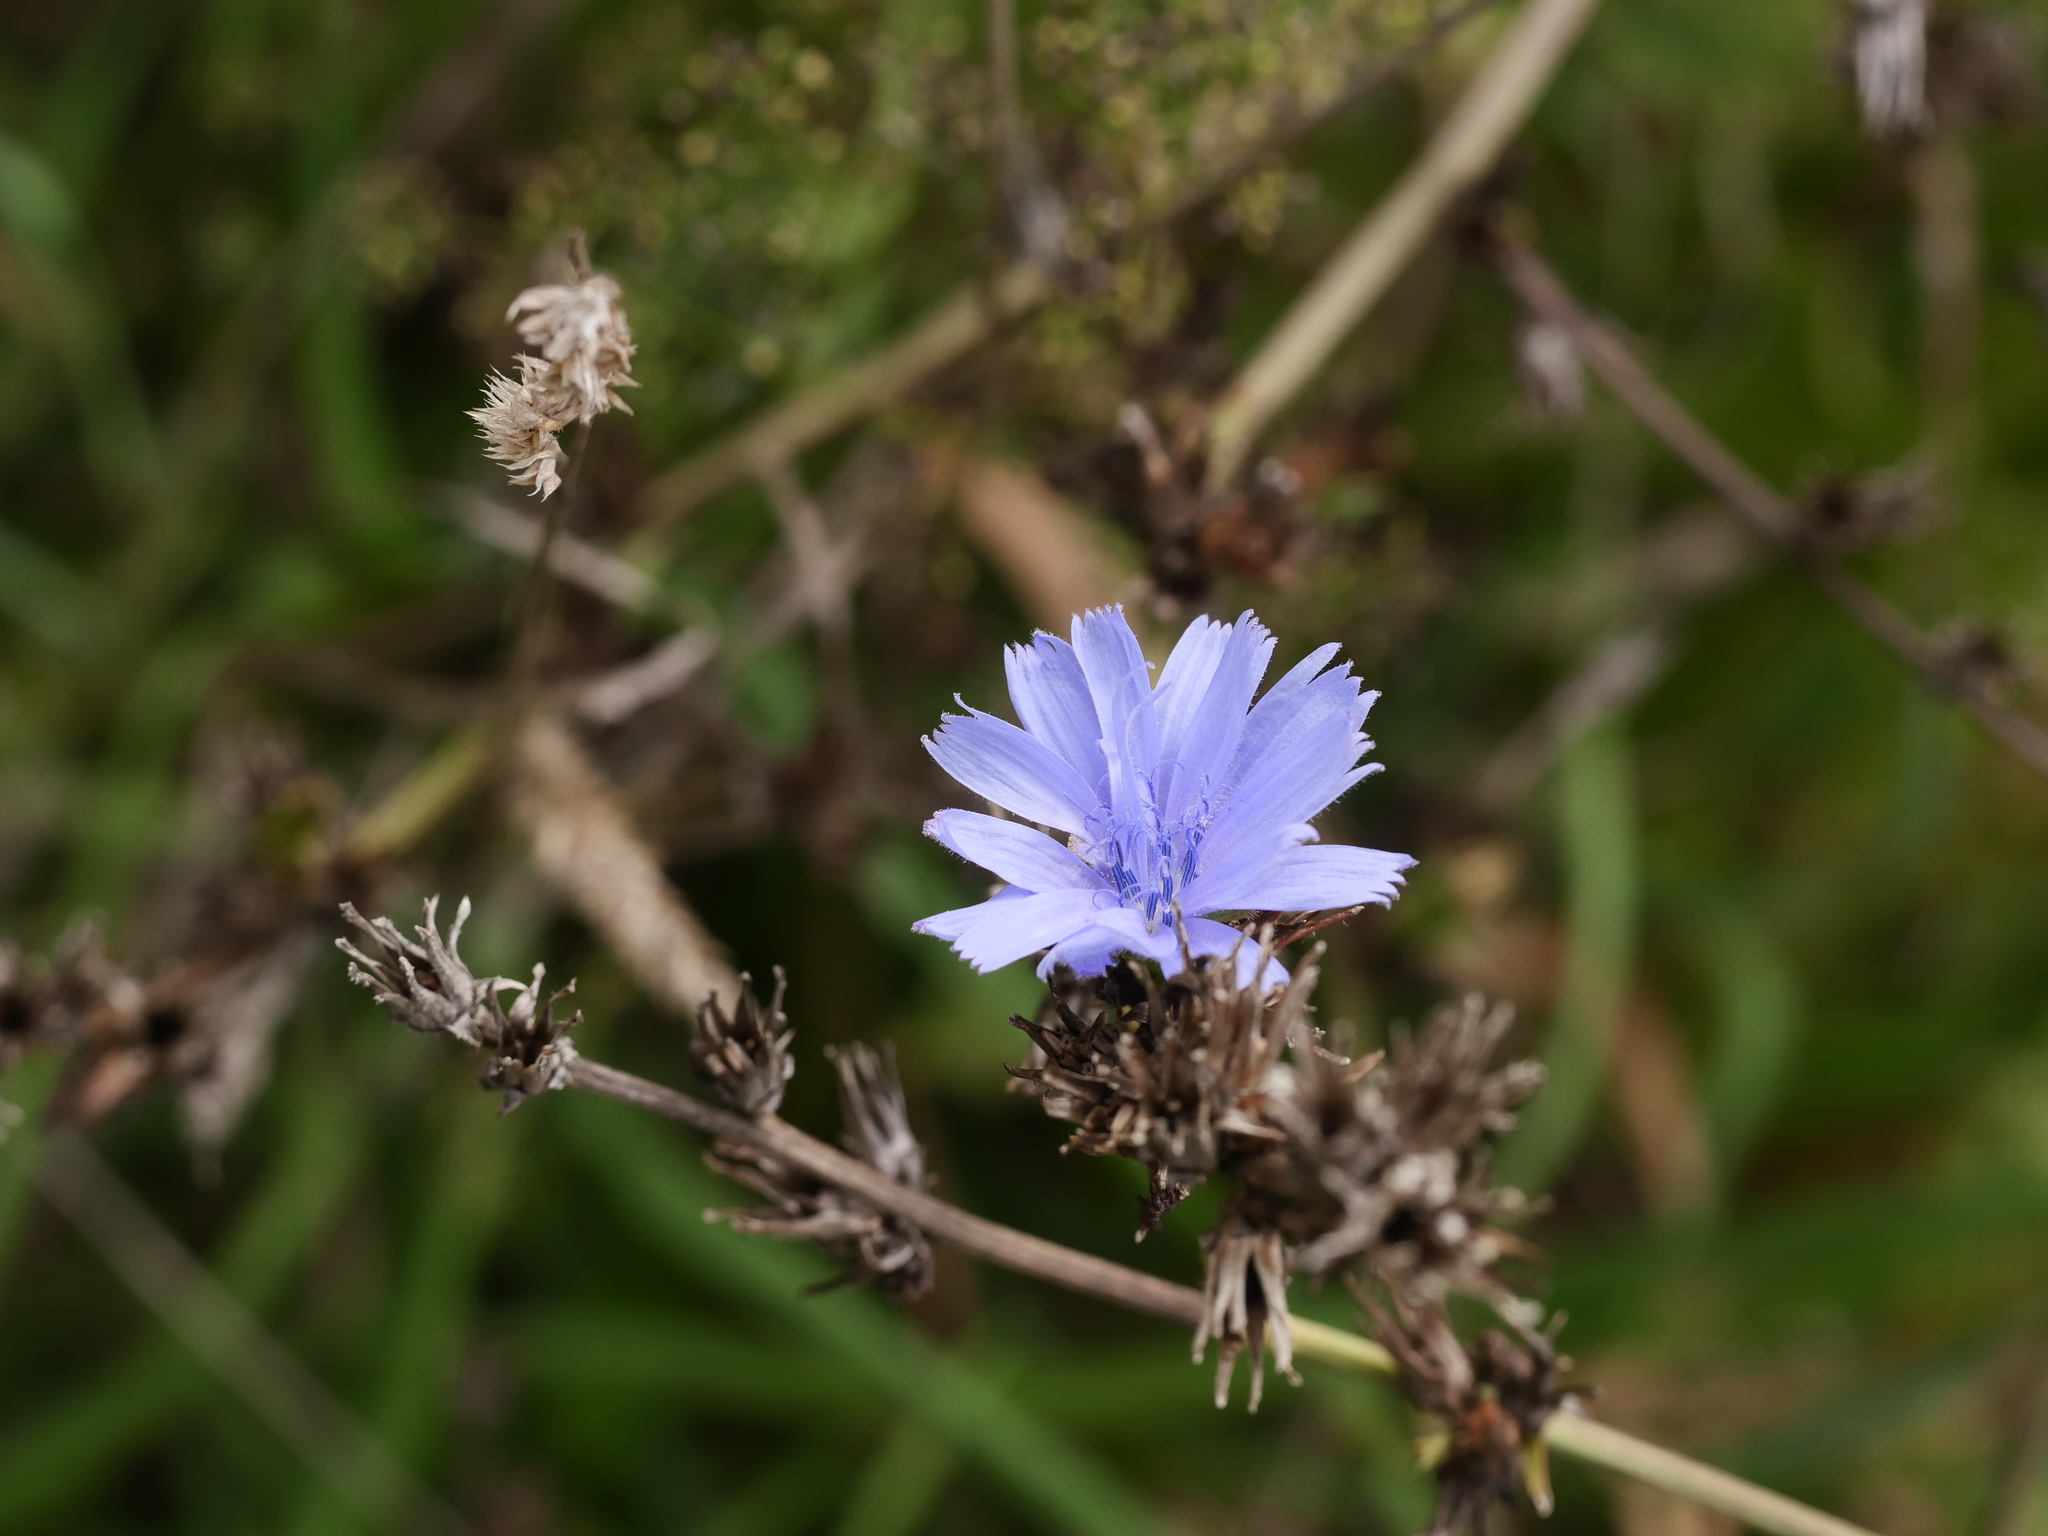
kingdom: Plantae
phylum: Tracheophyta
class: Magnoliopsida
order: Asterales
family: Asteraceae
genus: Cichorium
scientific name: Cichorium intybus
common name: Chicory
